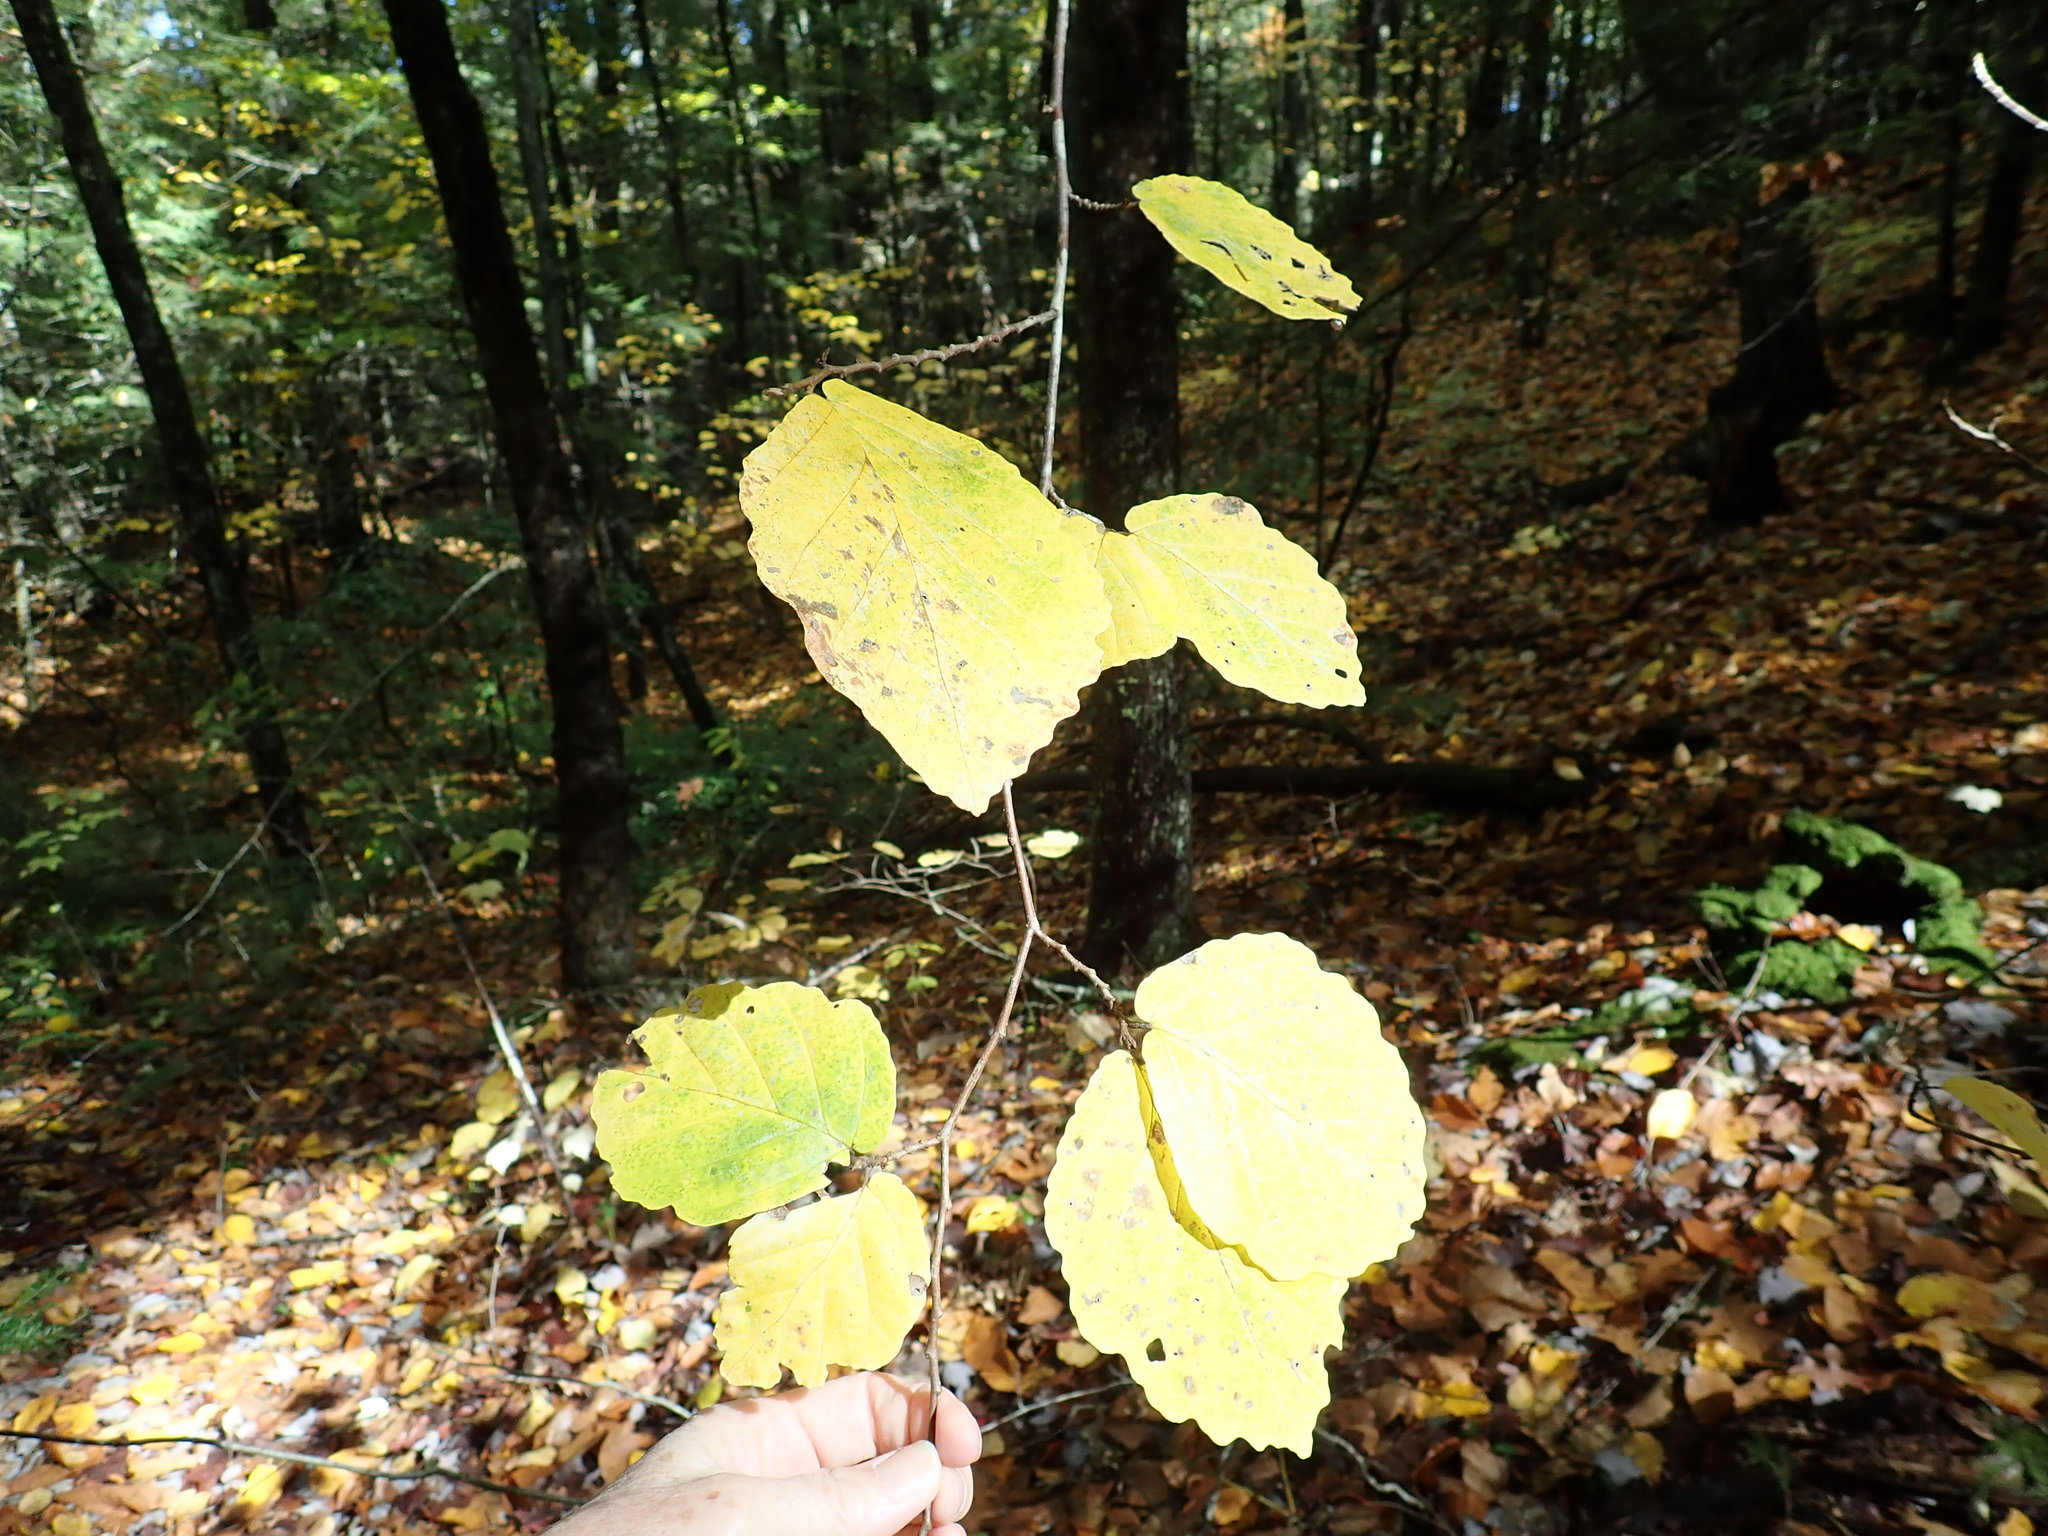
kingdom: Plantae
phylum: Tracheophyta
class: Magnoliopsida
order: Saxifragales
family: Hamamelidaceae
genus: Hamamelis
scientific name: Hamamelis virginiana
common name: Witch-hazel
